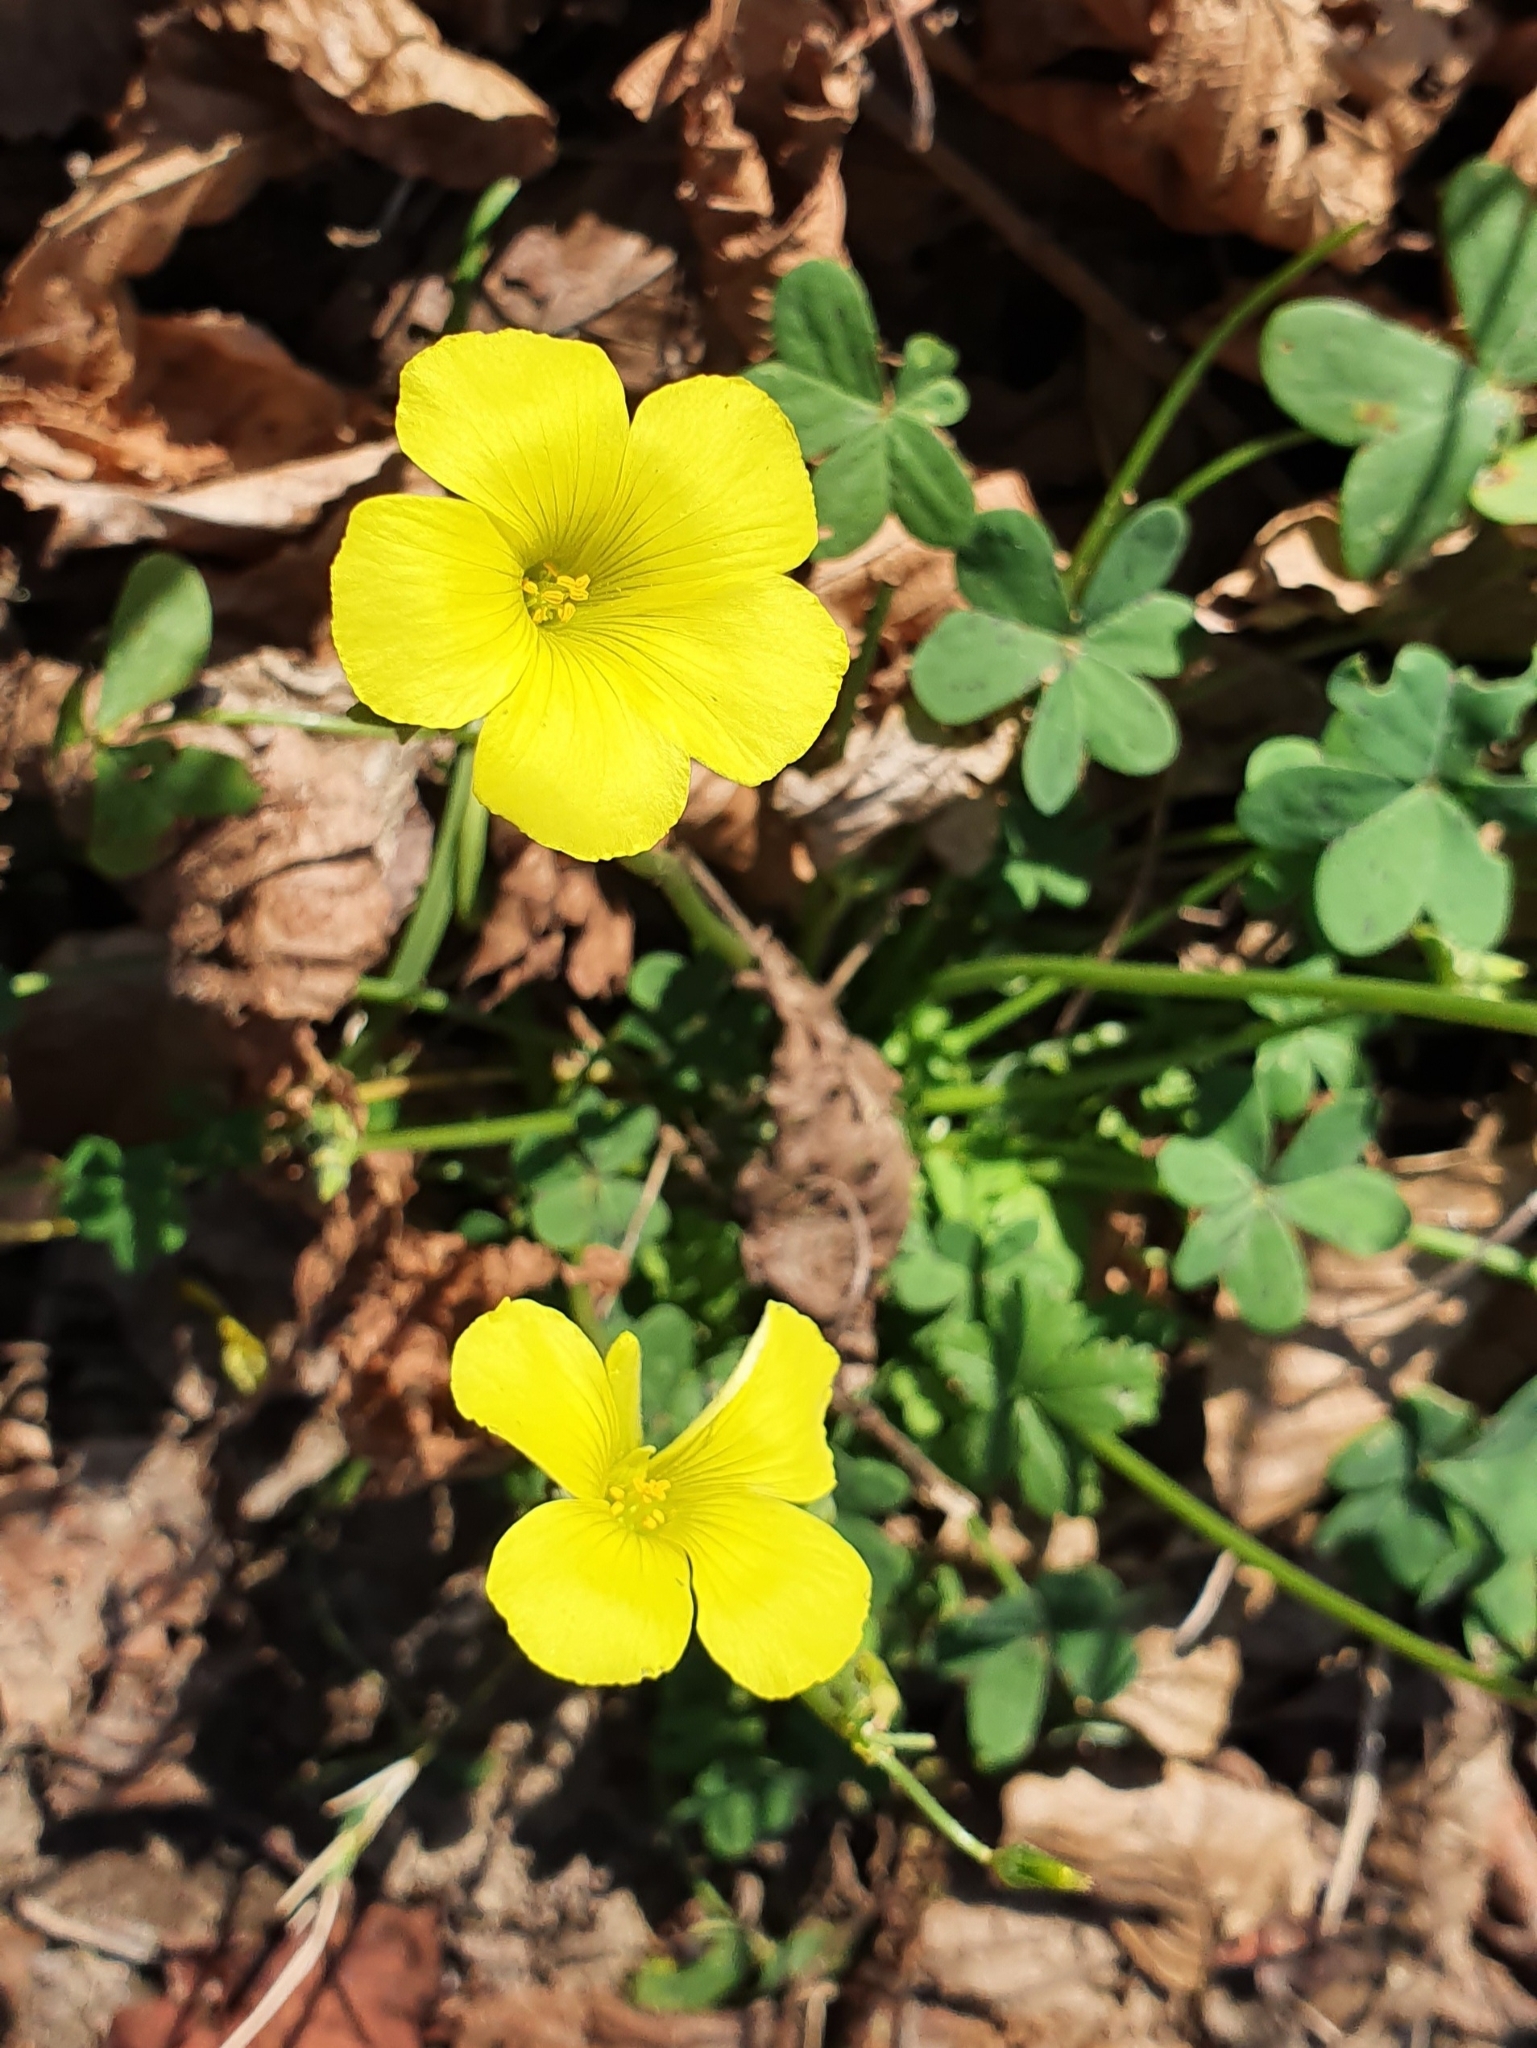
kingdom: Plantae
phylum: Tracheophyta
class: Magnoliopsida
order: Oxalidales
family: Oxalidaceae
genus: Oxalis
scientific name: Oxalis pes-caprae
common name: Bermuda-buttercup
